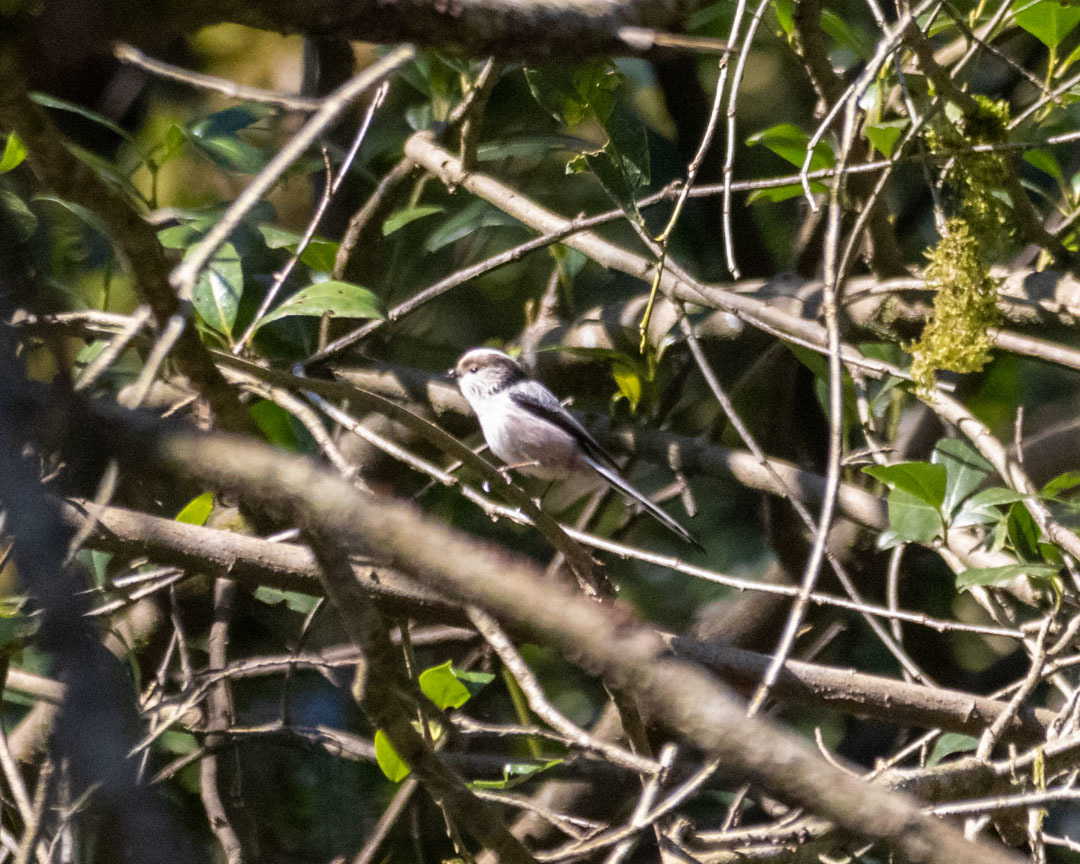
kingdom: Animalia
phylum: Chordata
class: Aves
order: Passeriformes
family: Aegithalidae
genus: Aegithalos
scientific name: Aegithalos caudatus
